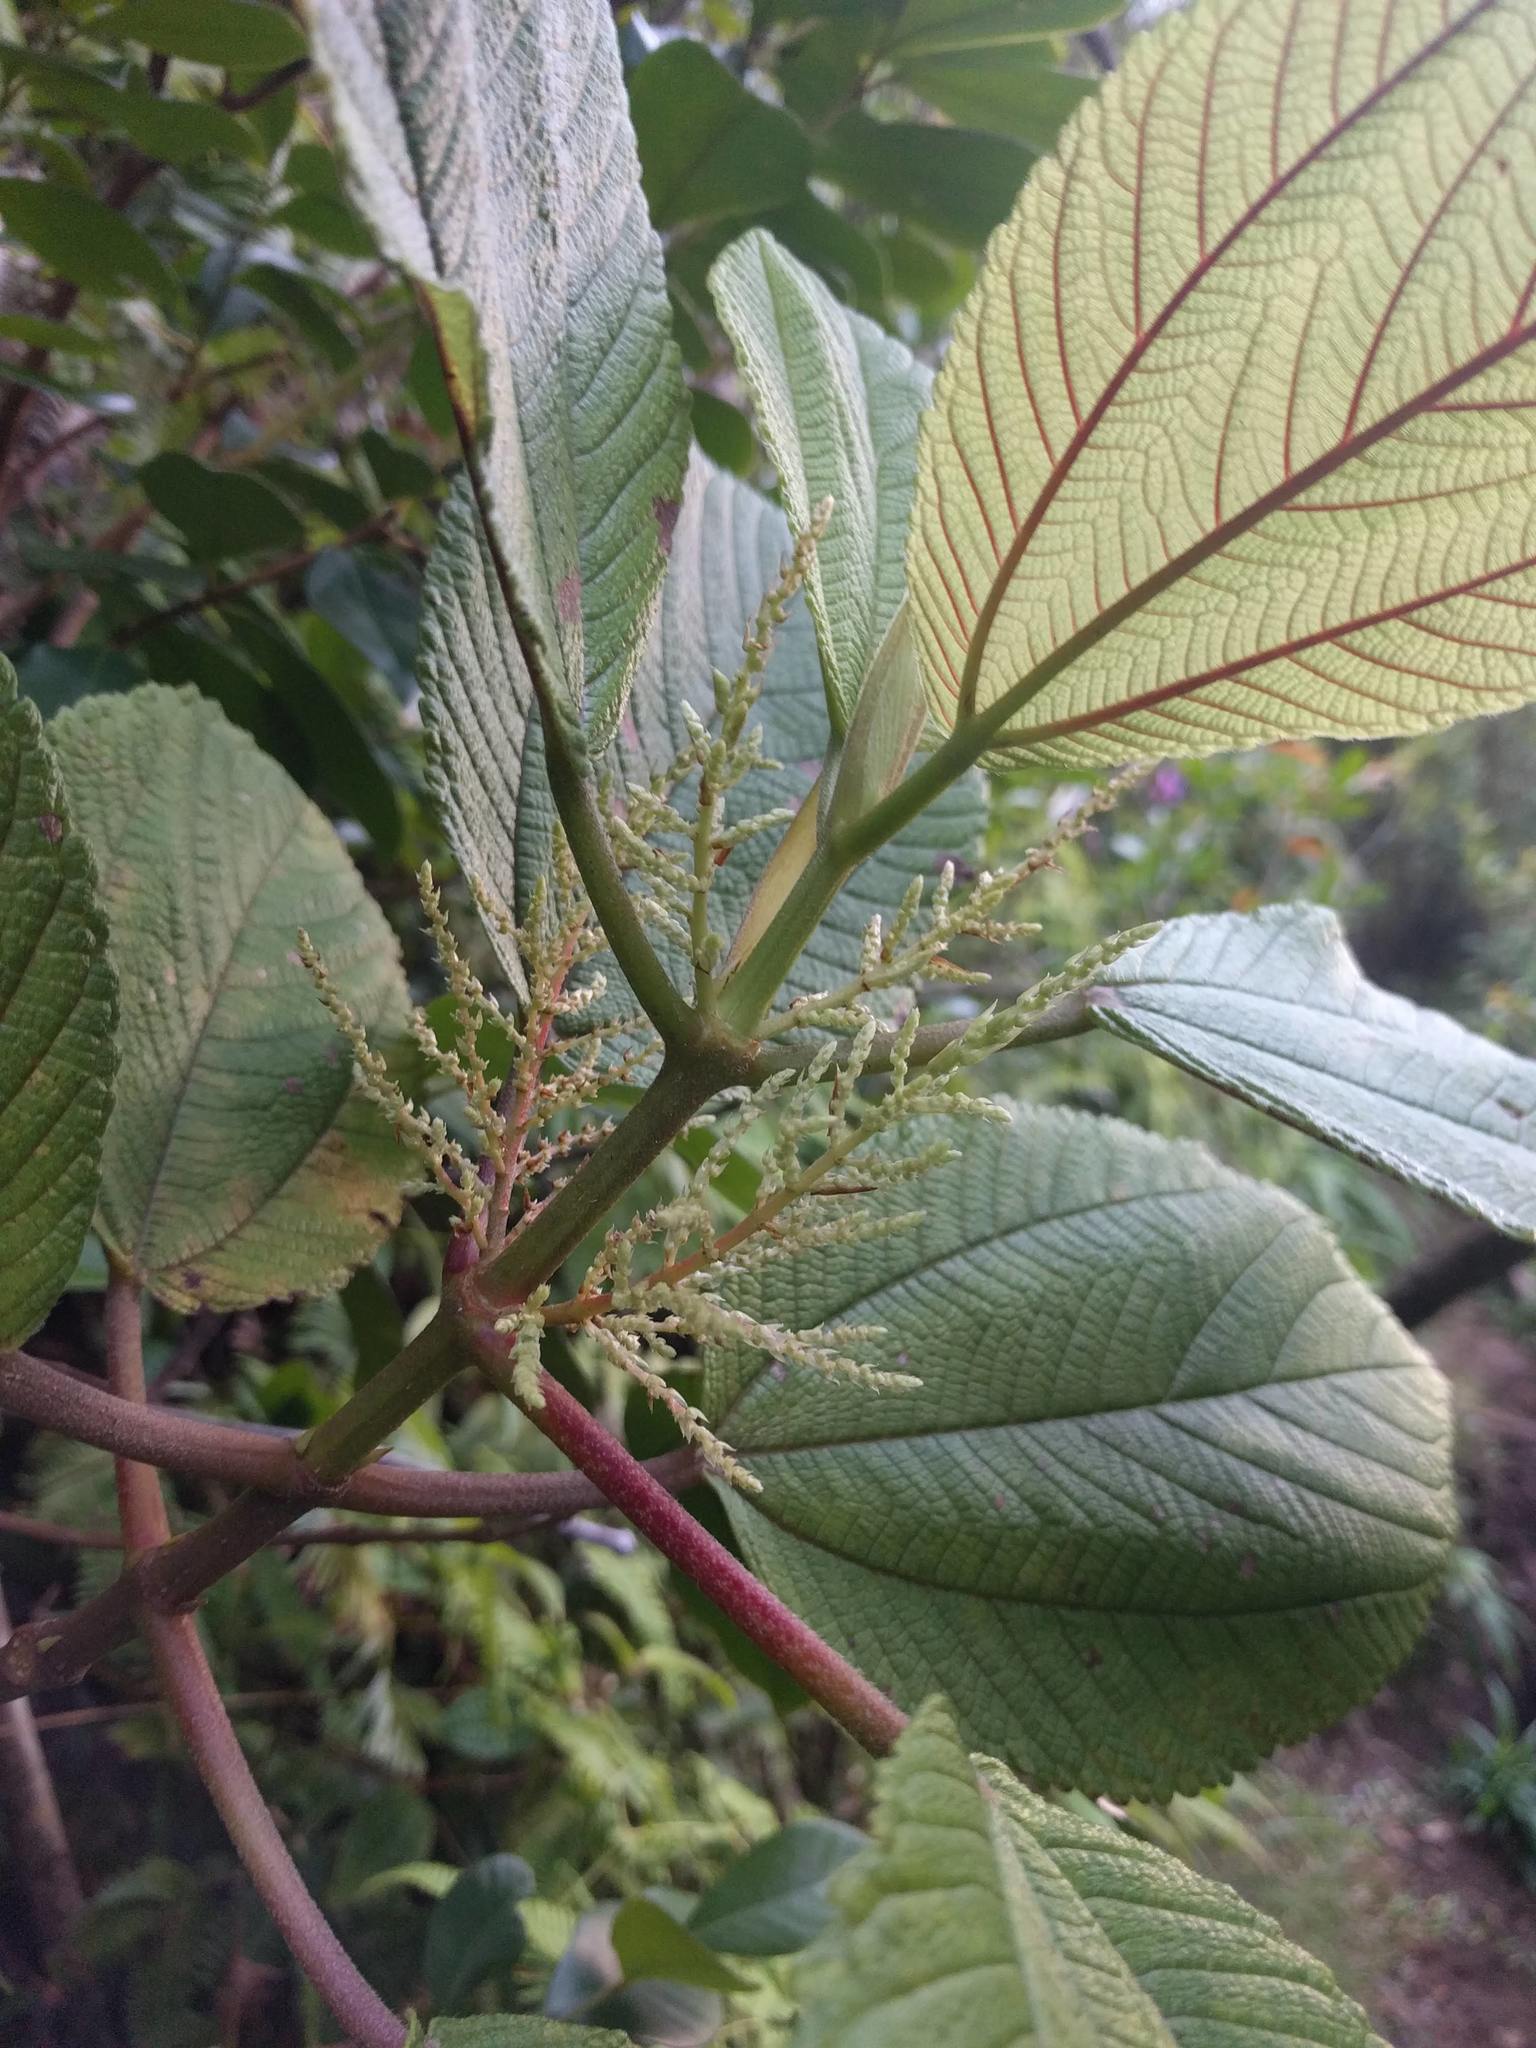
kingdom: Plantae
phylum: Tracheophyta
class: Magnoliopsida
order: Rosales
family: Urticaceae
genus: Boehmeria
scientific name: Boehmeria grandis
